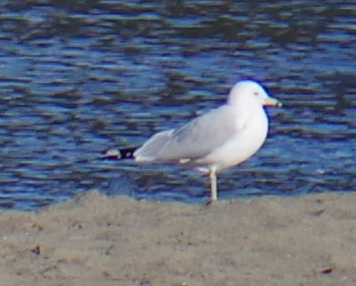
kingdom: Animalia
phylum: Chordata
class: Aves
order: Charadriiformes
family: Laridae
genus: Larus
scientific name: Larus delawarensis
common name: Ring-billed gull
